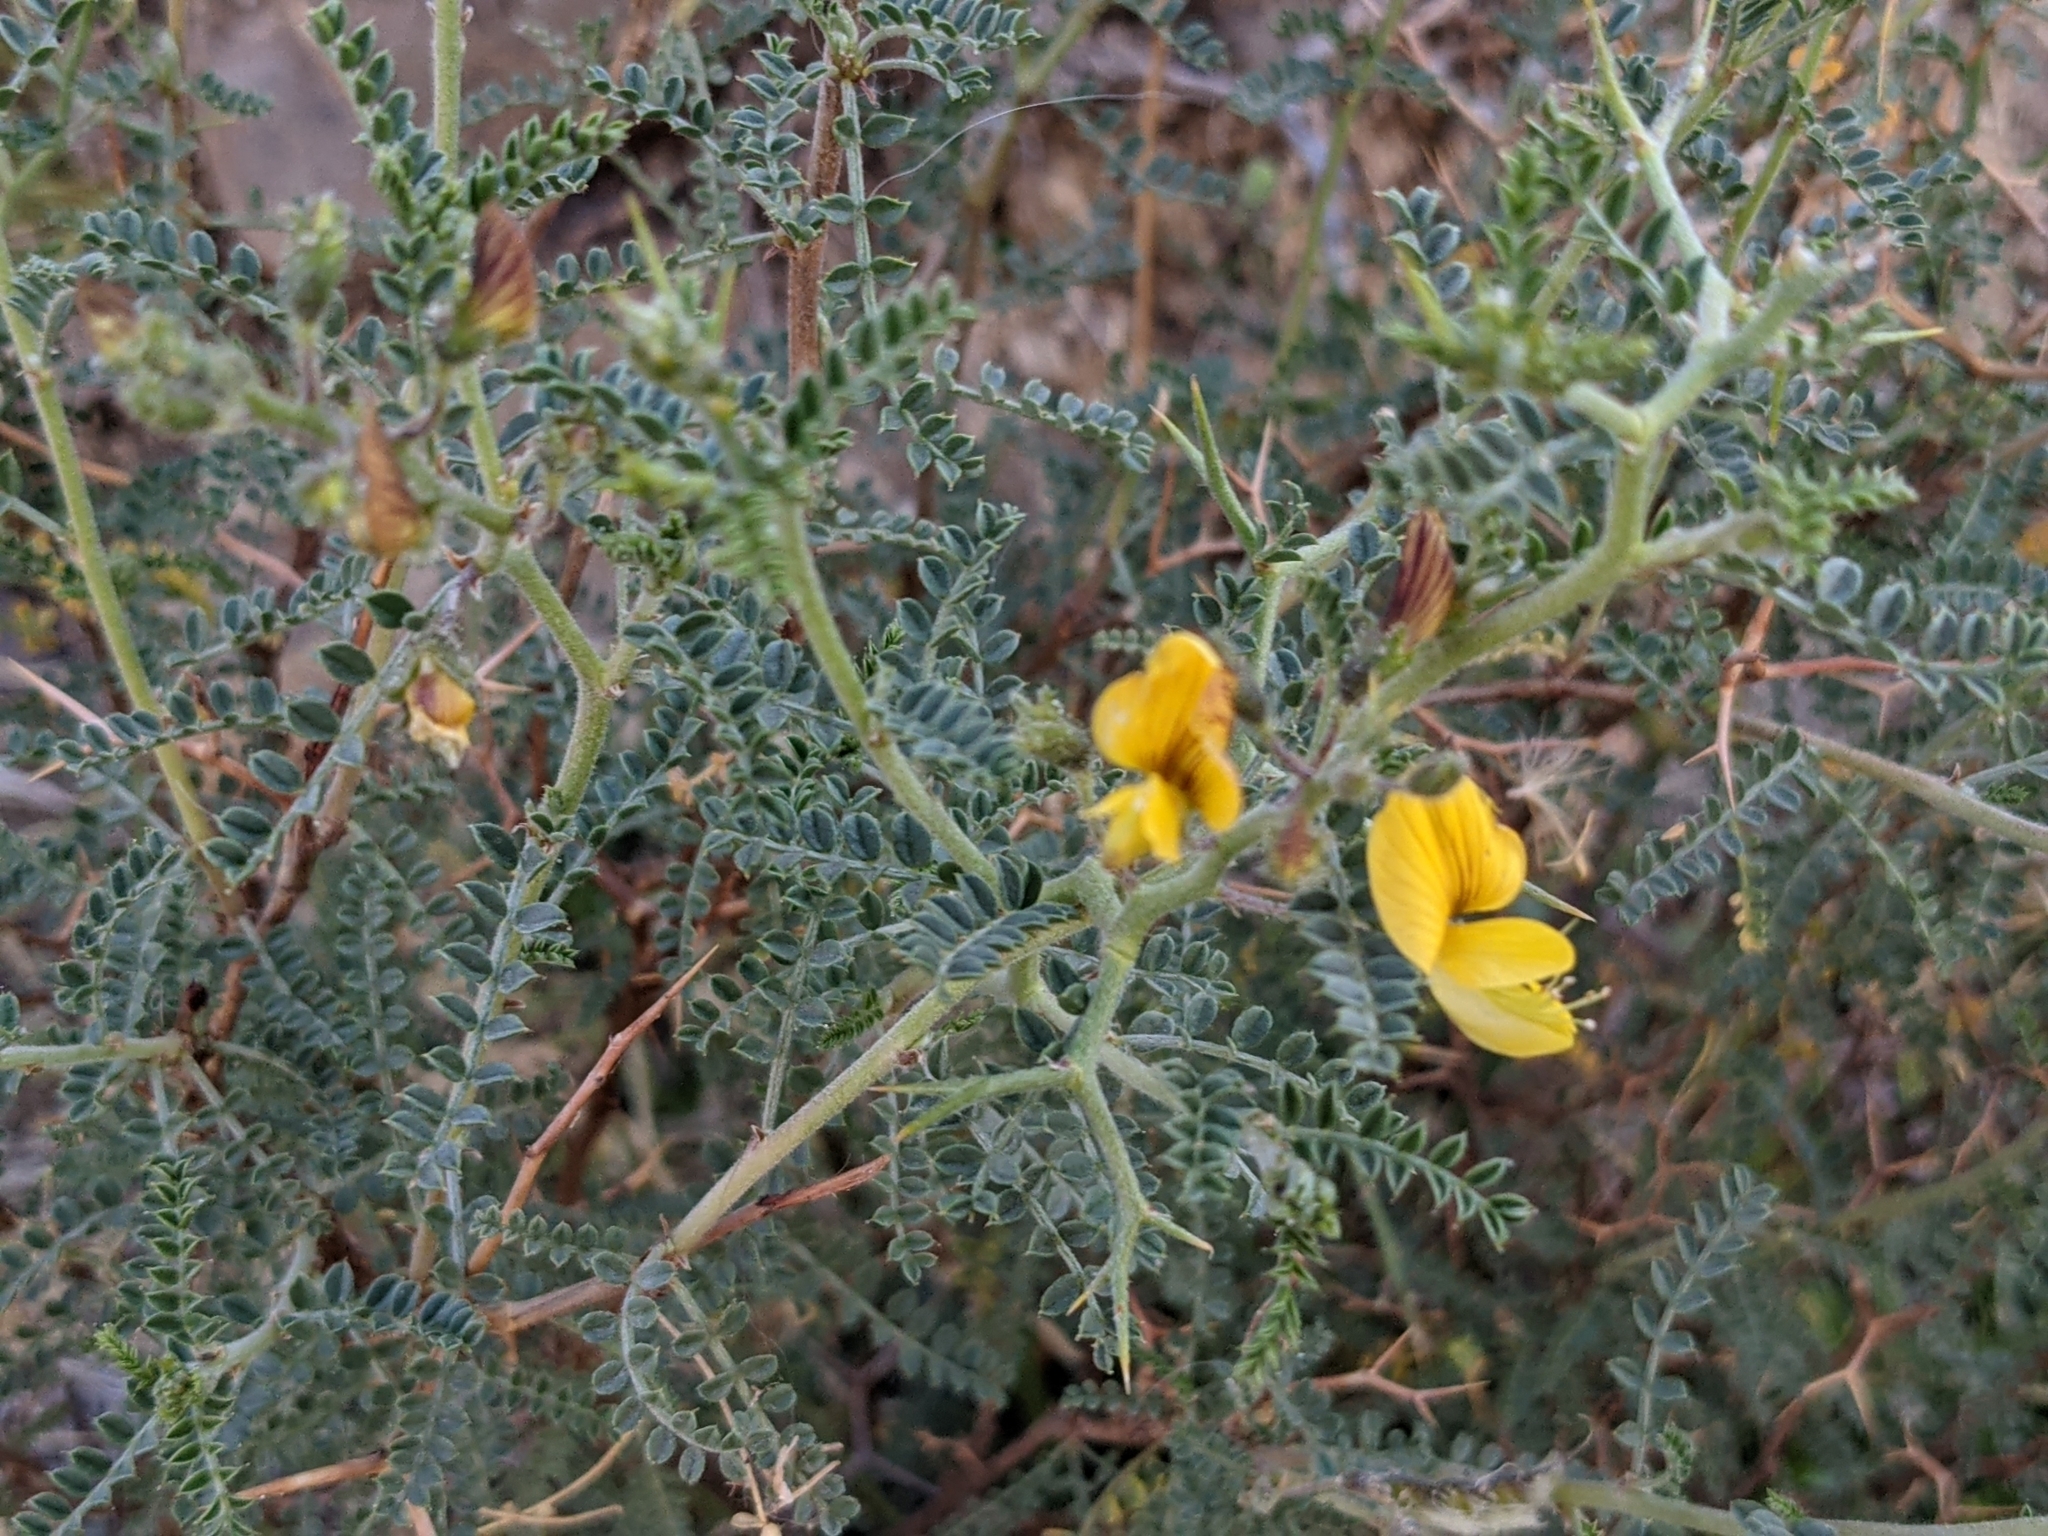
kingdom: Plantae
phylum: Tracheophyta
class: Magnoliopsida
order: Fabales
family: Fabaceae
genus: Adesmia
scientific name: Adesmia miraflorensis
